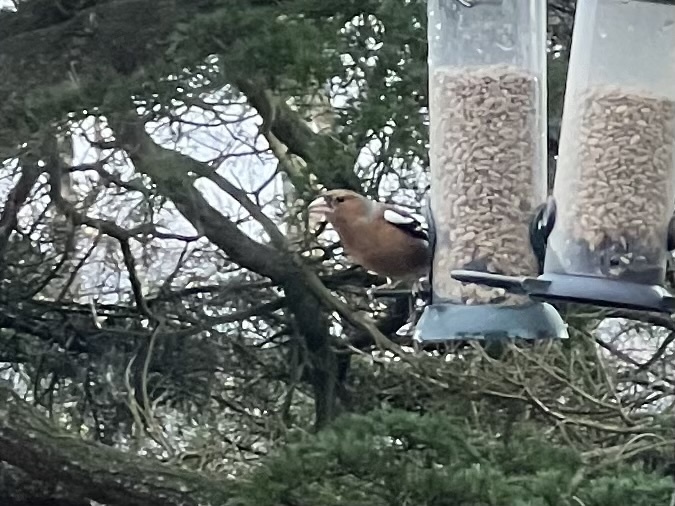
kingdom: Animalia
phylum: Chordata
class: Aves
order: Passeriformes
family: Fringillidae
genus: Fringilla
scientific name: Fringilla coelebs
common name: Common chaffinch
